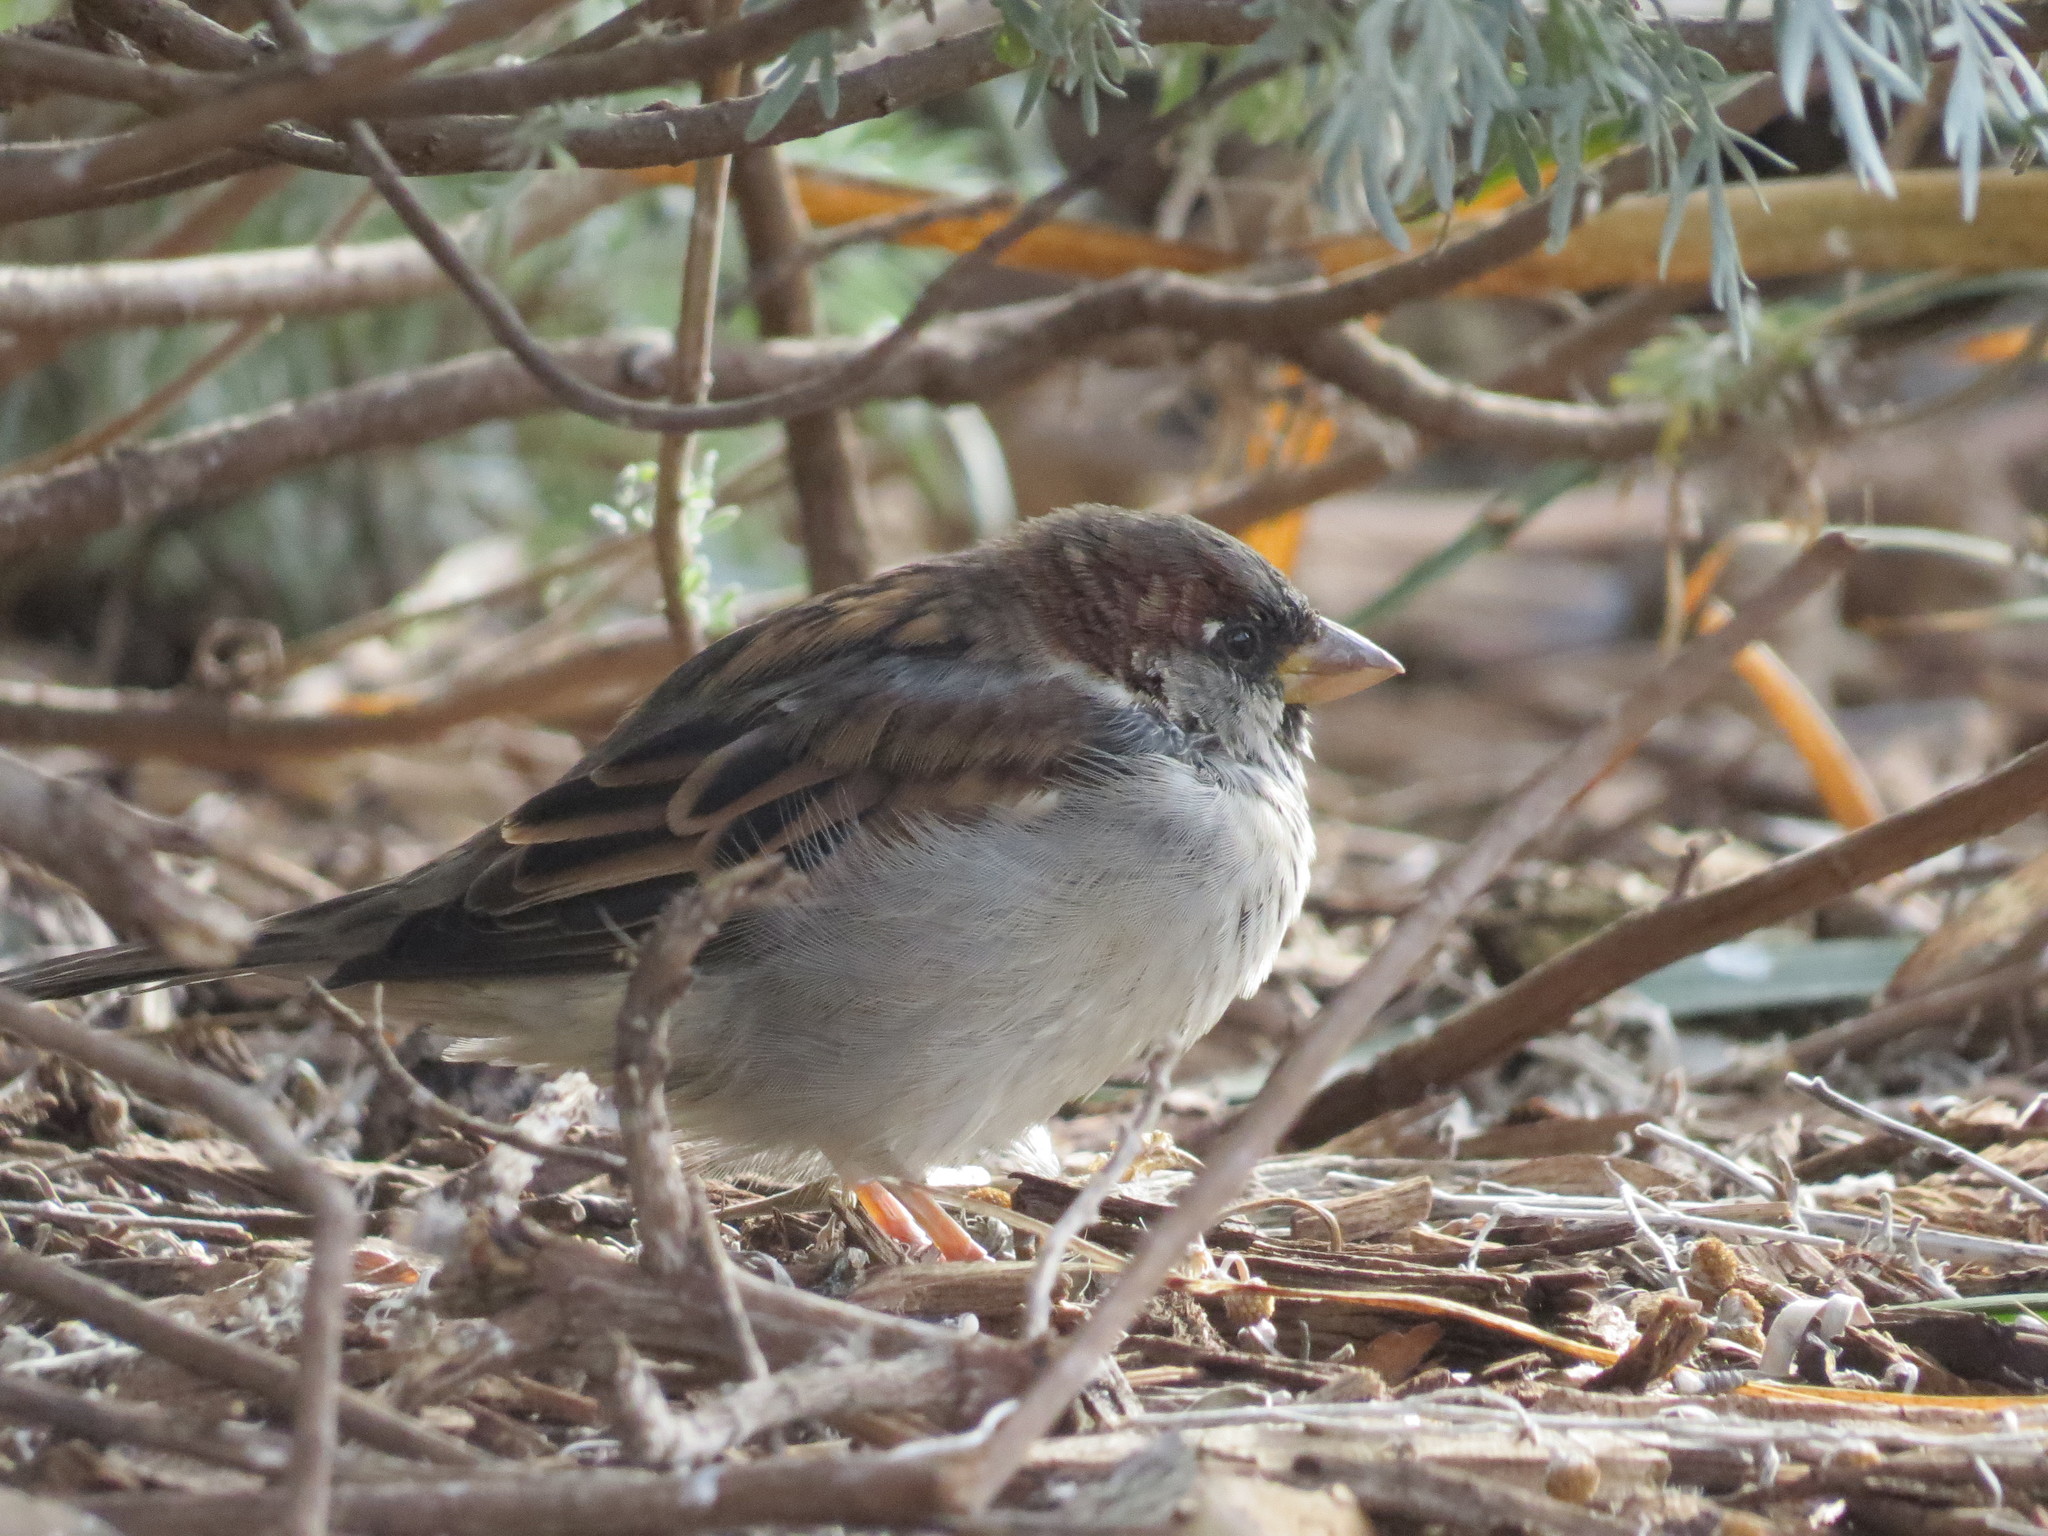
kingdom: Animalia
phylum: Chordata
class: Aves
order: Passeriformes
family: Passeridae
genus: Passer
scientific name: Passer domesticus
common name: House sparrow
